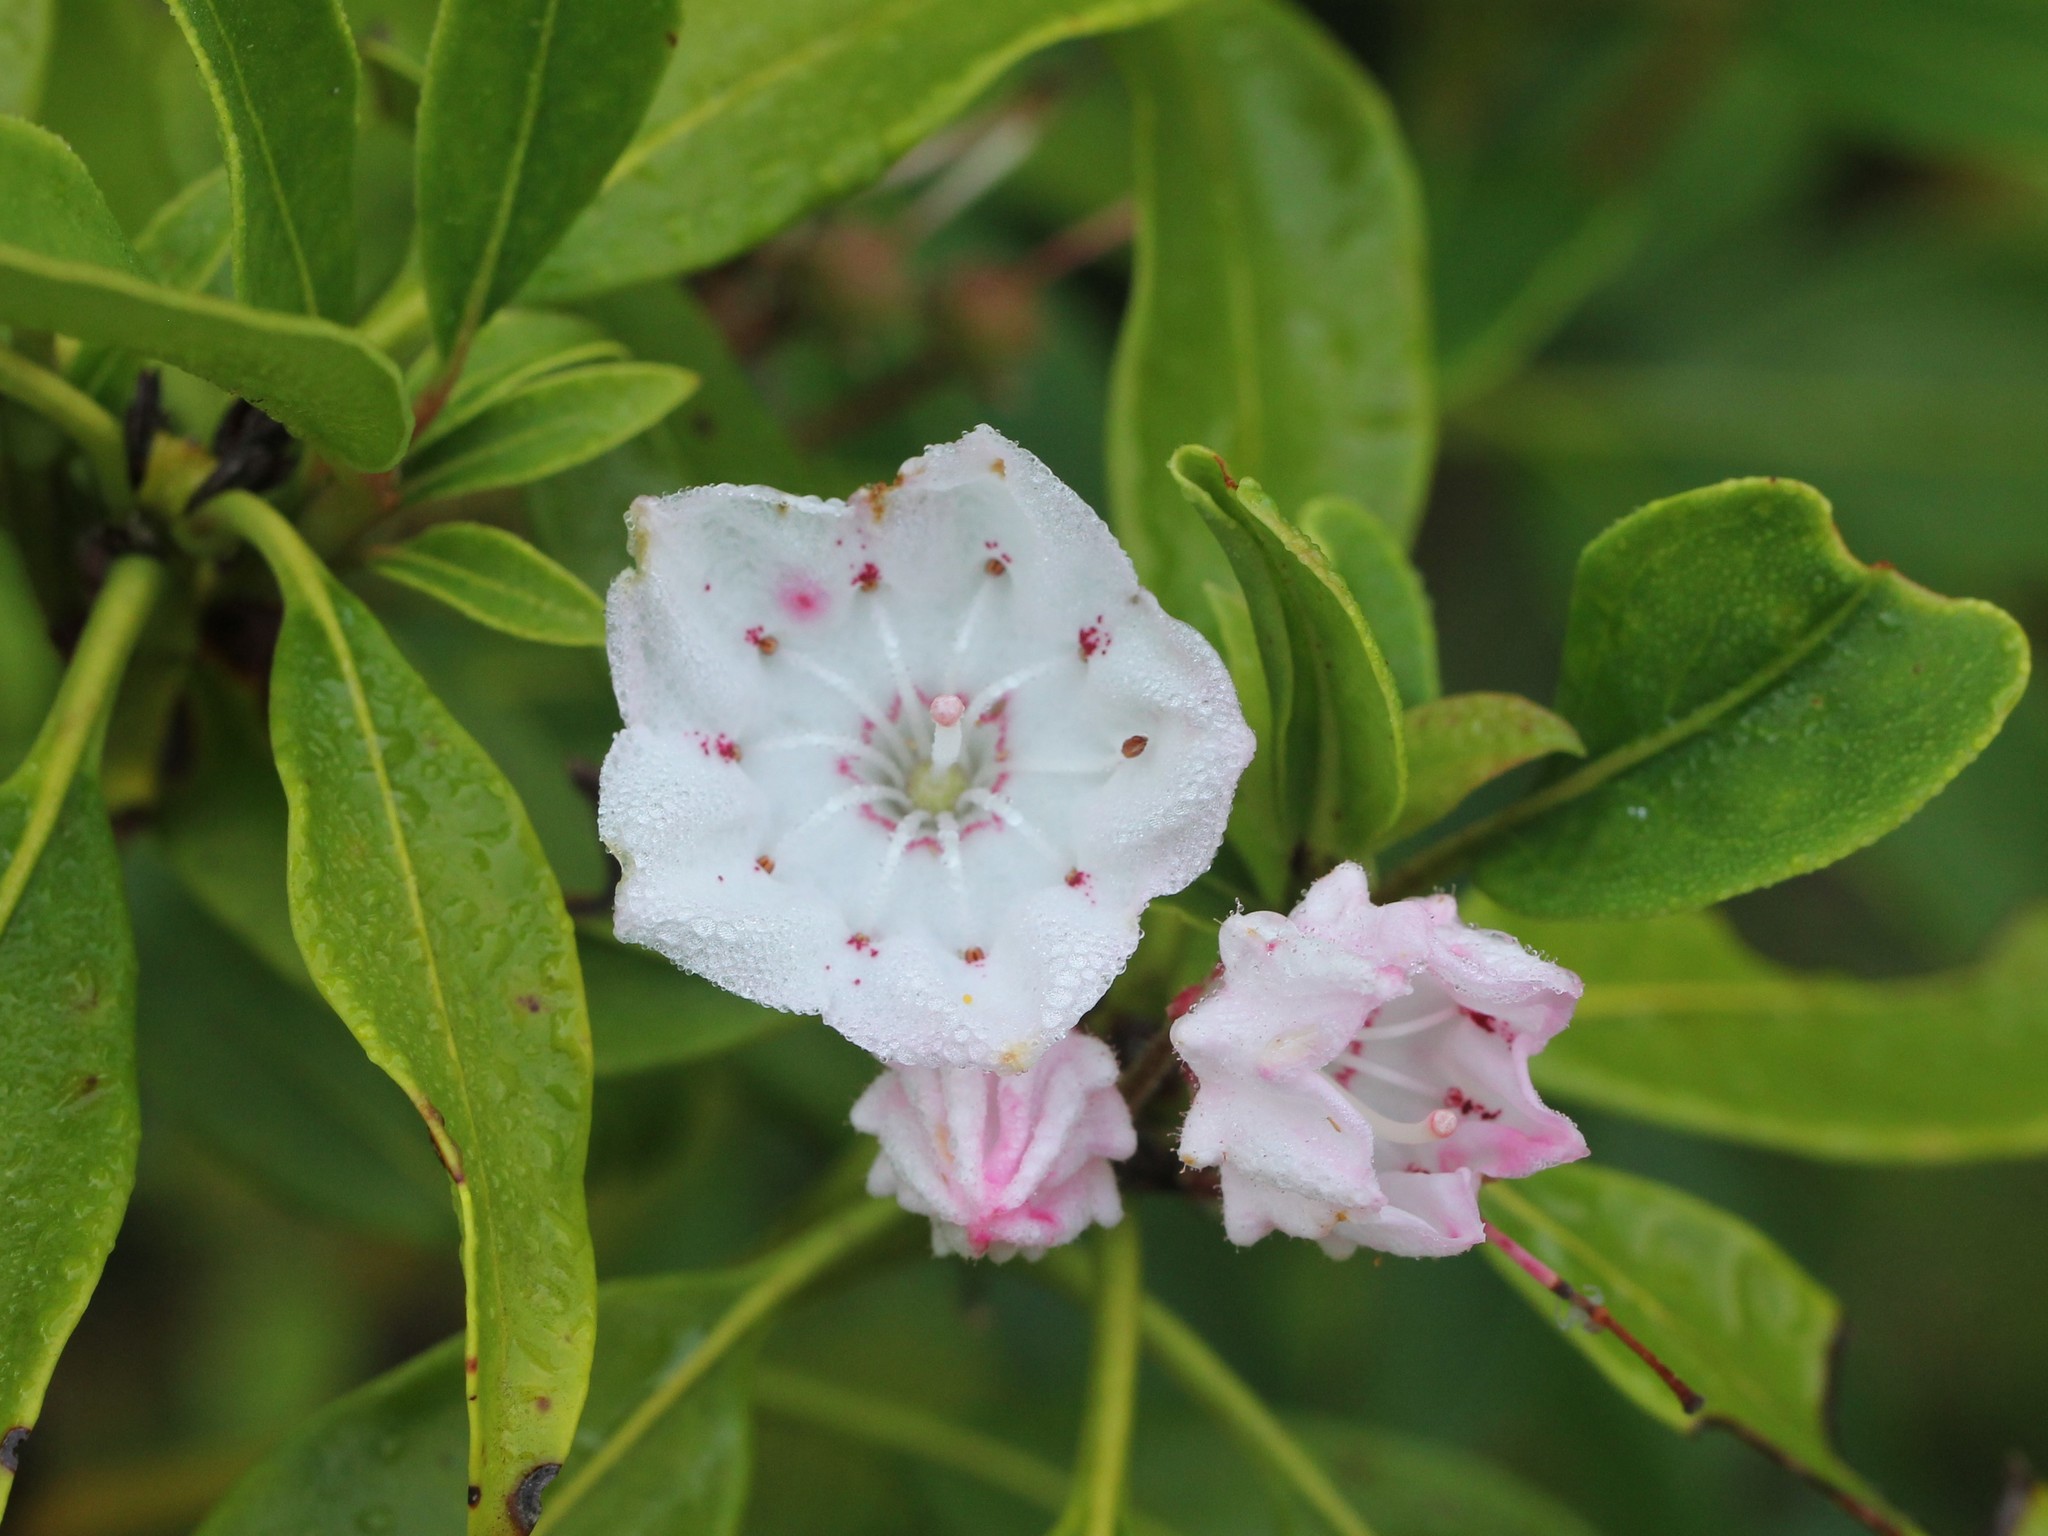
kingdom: Plantae
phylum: Tracheophyta
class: Magnoliopsida
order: Ericales
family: Ericaceae
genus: Kalmia
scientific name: Kalmia latifolia
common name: Mountain-laurel
